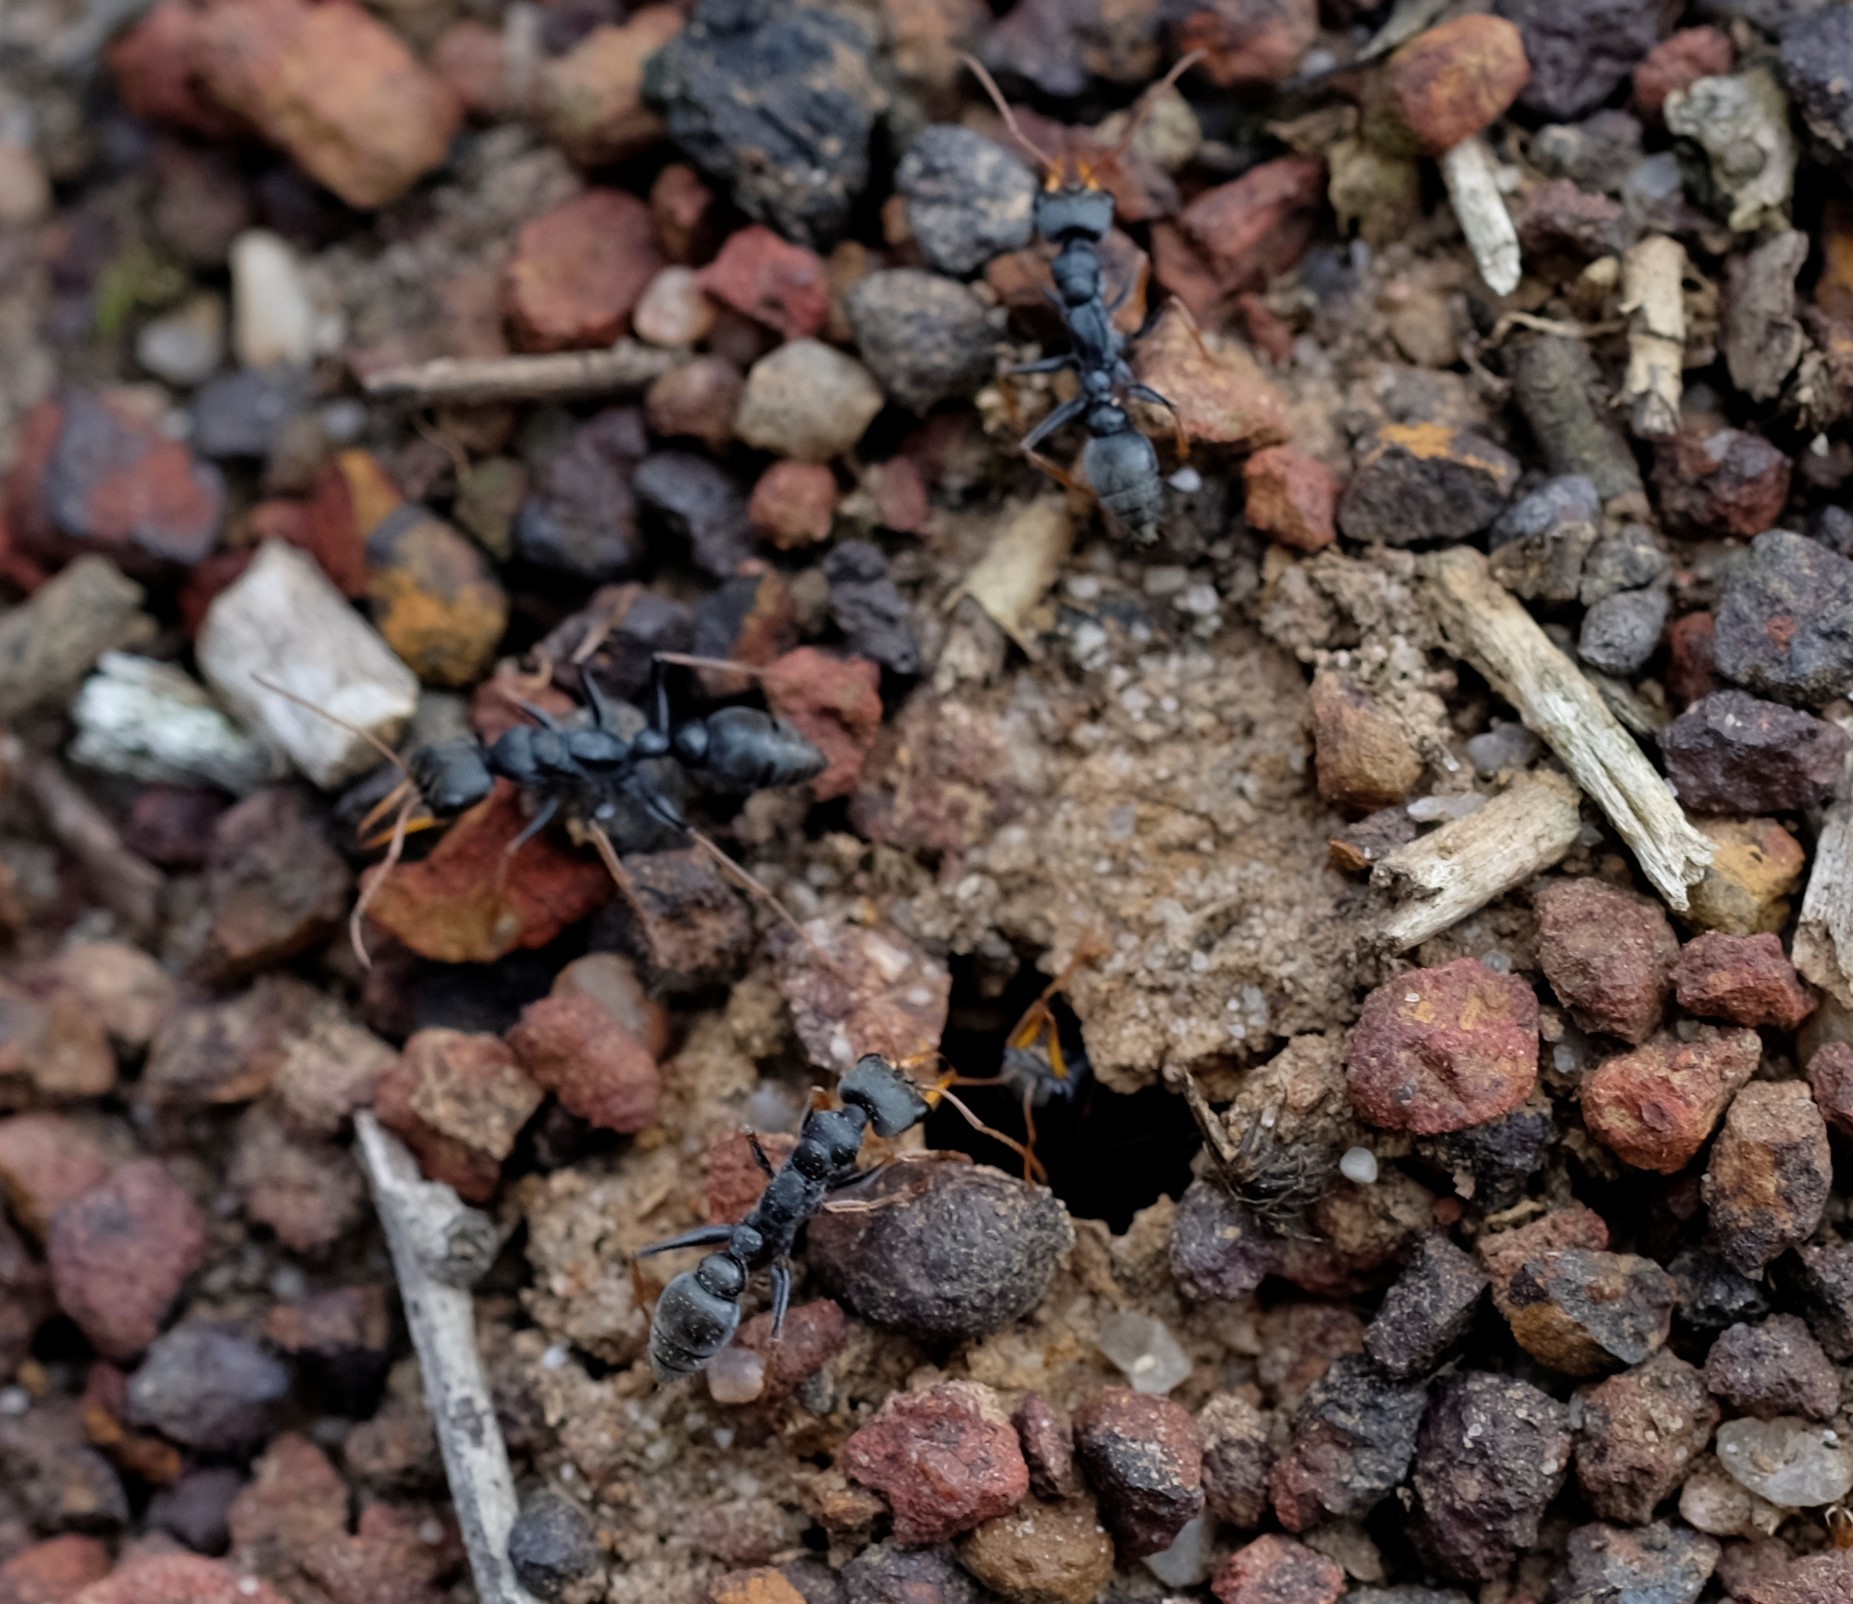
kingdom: Animalia
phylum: Arthropoda
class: Insecta
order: Hymenoptera
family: Formicidae
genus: Myrmecia
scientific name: Myrmecia pilosula
